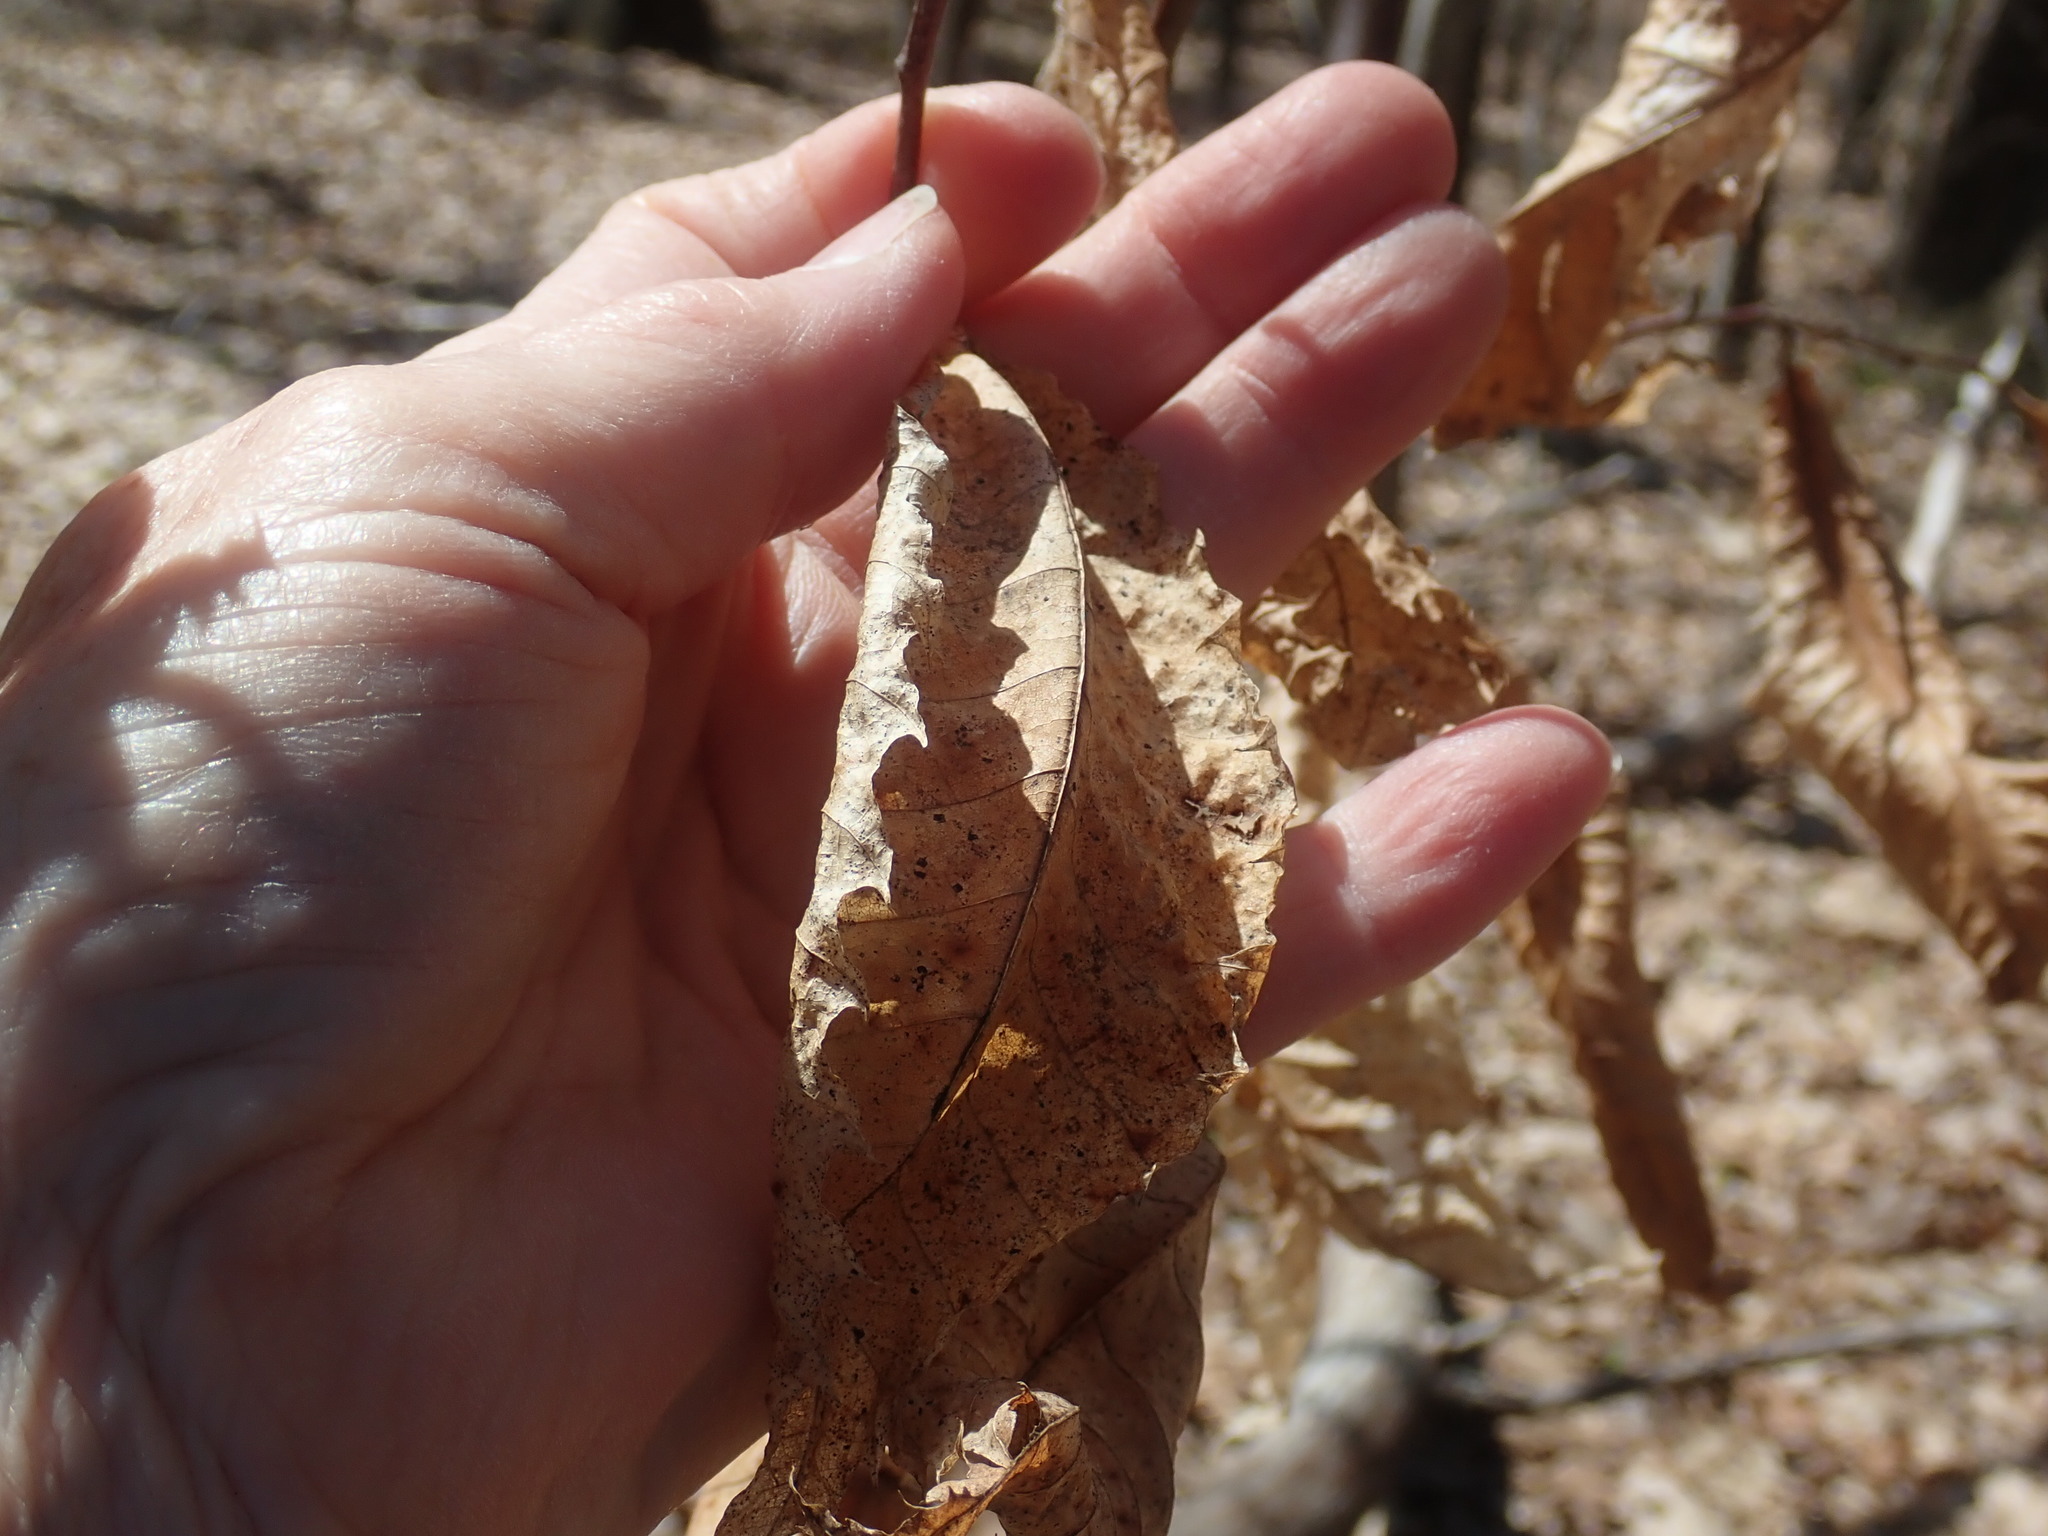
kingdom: Plantae
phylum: Tracheophyta
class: Magnoliopsida
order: Fagales
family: Fagaceae
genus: Castanea
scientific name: Castanea dentata
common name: American chestnut
